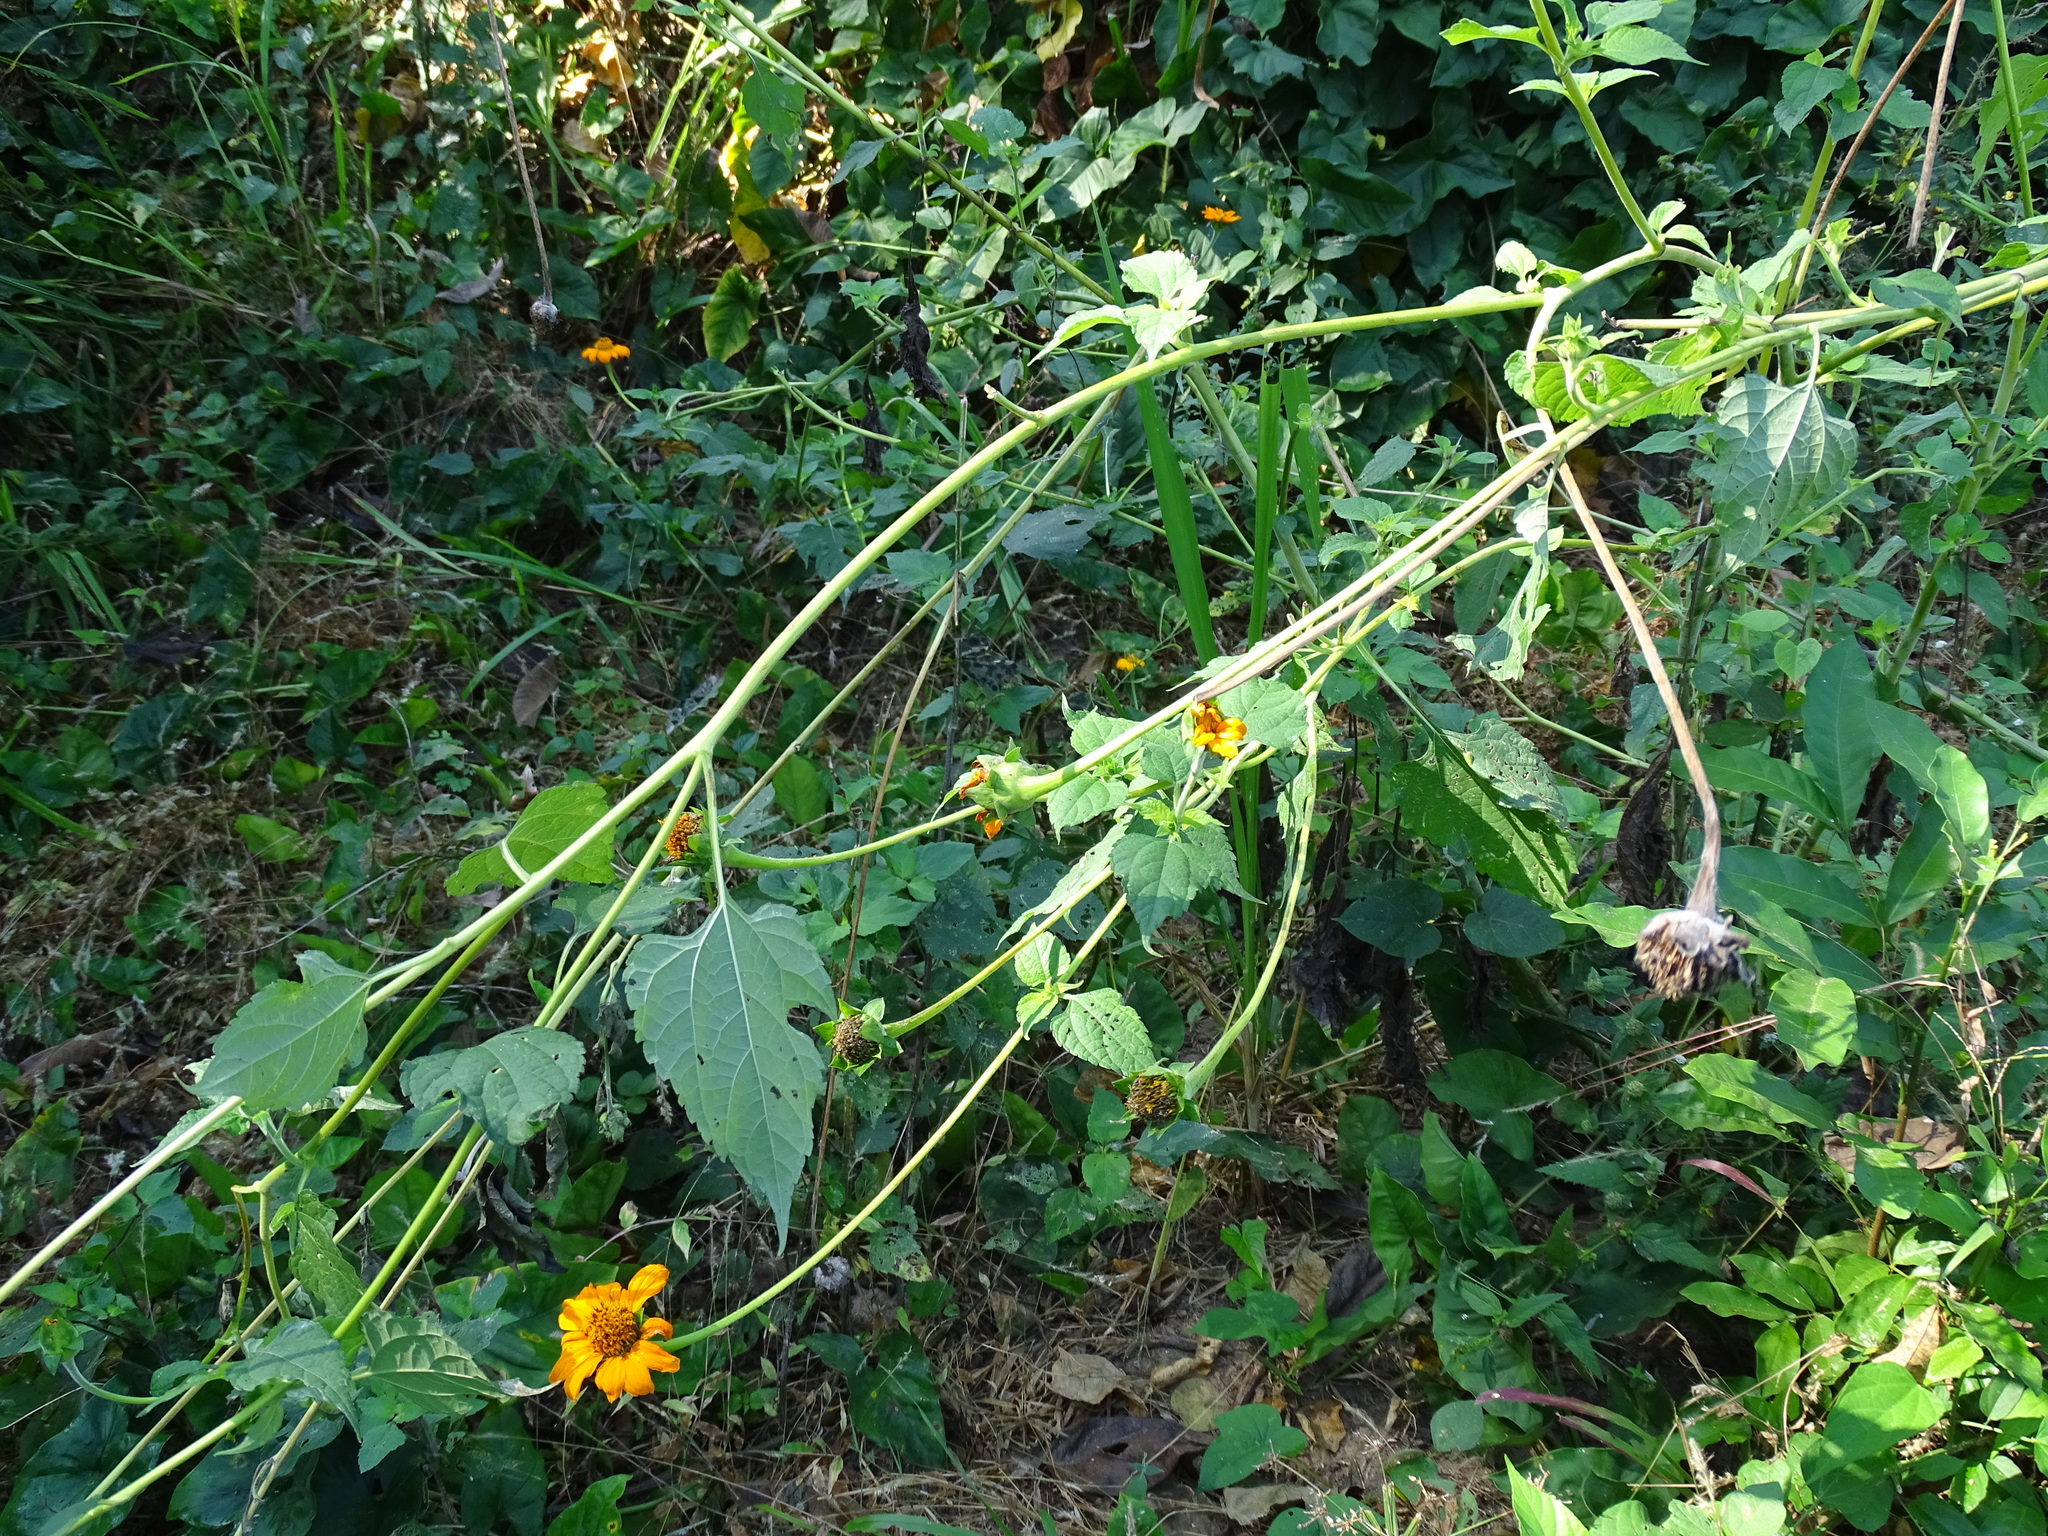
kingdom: Plantae
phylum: Tracheophyta
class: Magnoliopsida
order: Asterales
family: Asteraceae
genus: Tithonia
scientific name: Tithonia rotundifolia
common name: Sunflower
